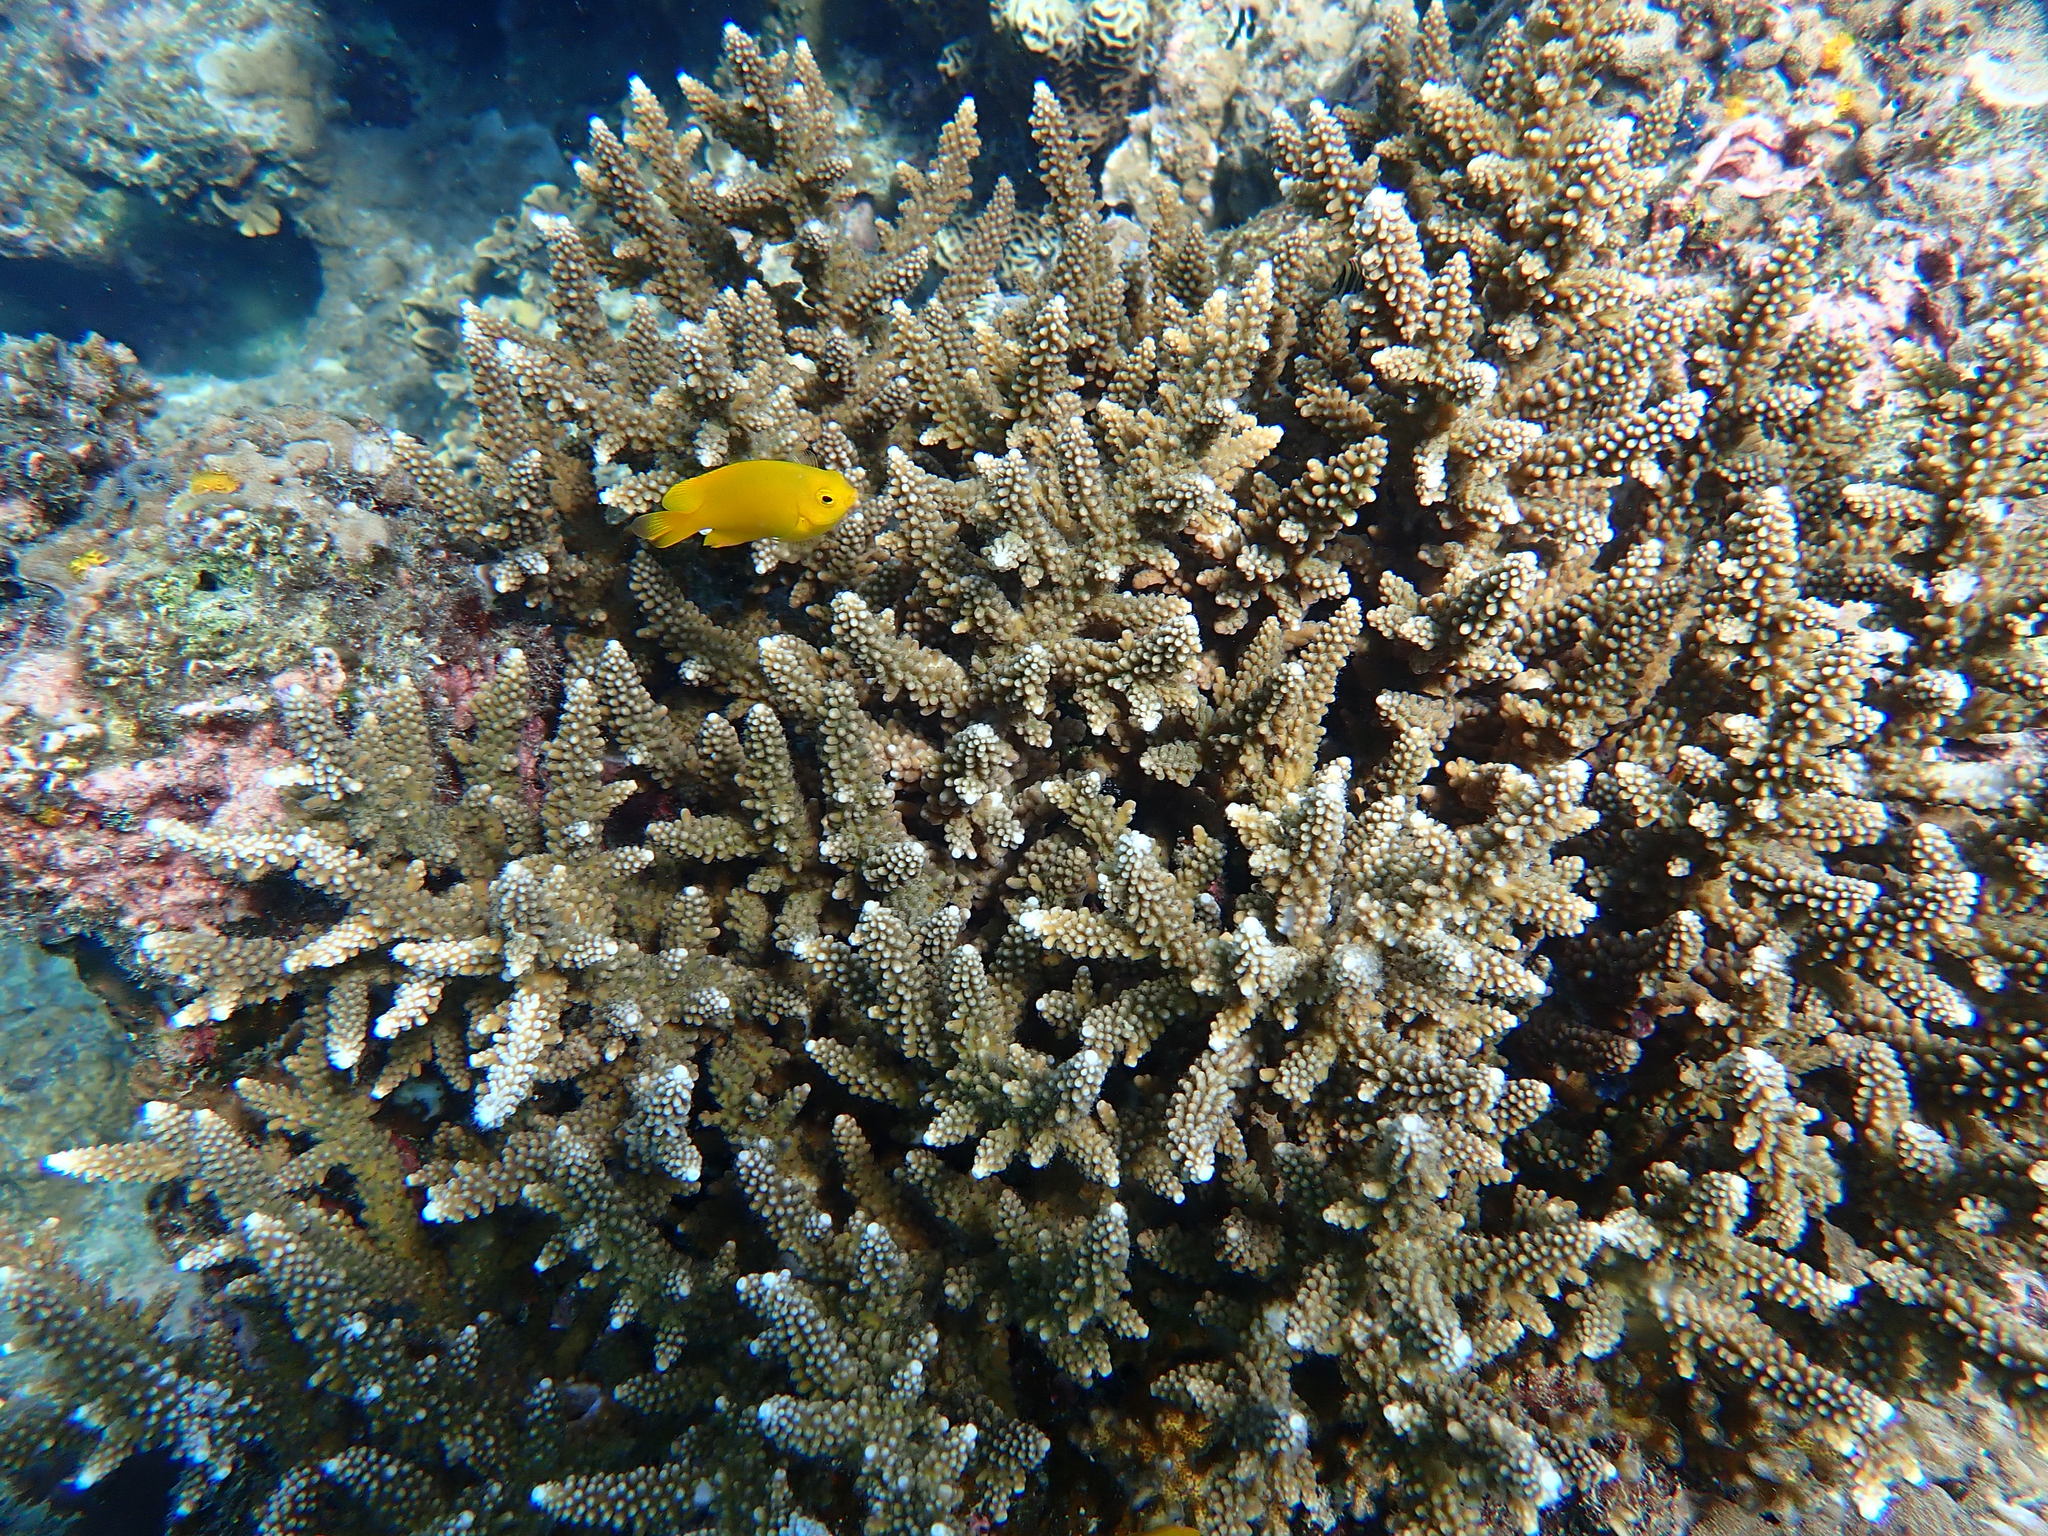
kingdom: Animalia
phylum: Chordata
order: Perciformes
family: Pomacentridae
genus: Pomacentrus
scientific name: Pomacentrus moluccensis
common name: Lemon damsel
